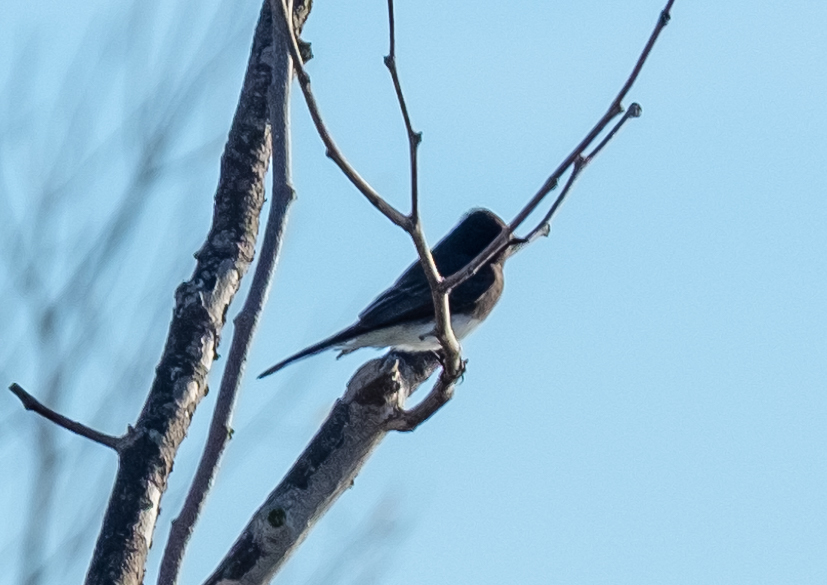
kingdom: Animalia
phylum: Chordata
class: Aves
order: Passeriformes
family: Tyrannidae
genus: Sayornis
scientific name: Sayornis nigricans
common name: Black phoebe
